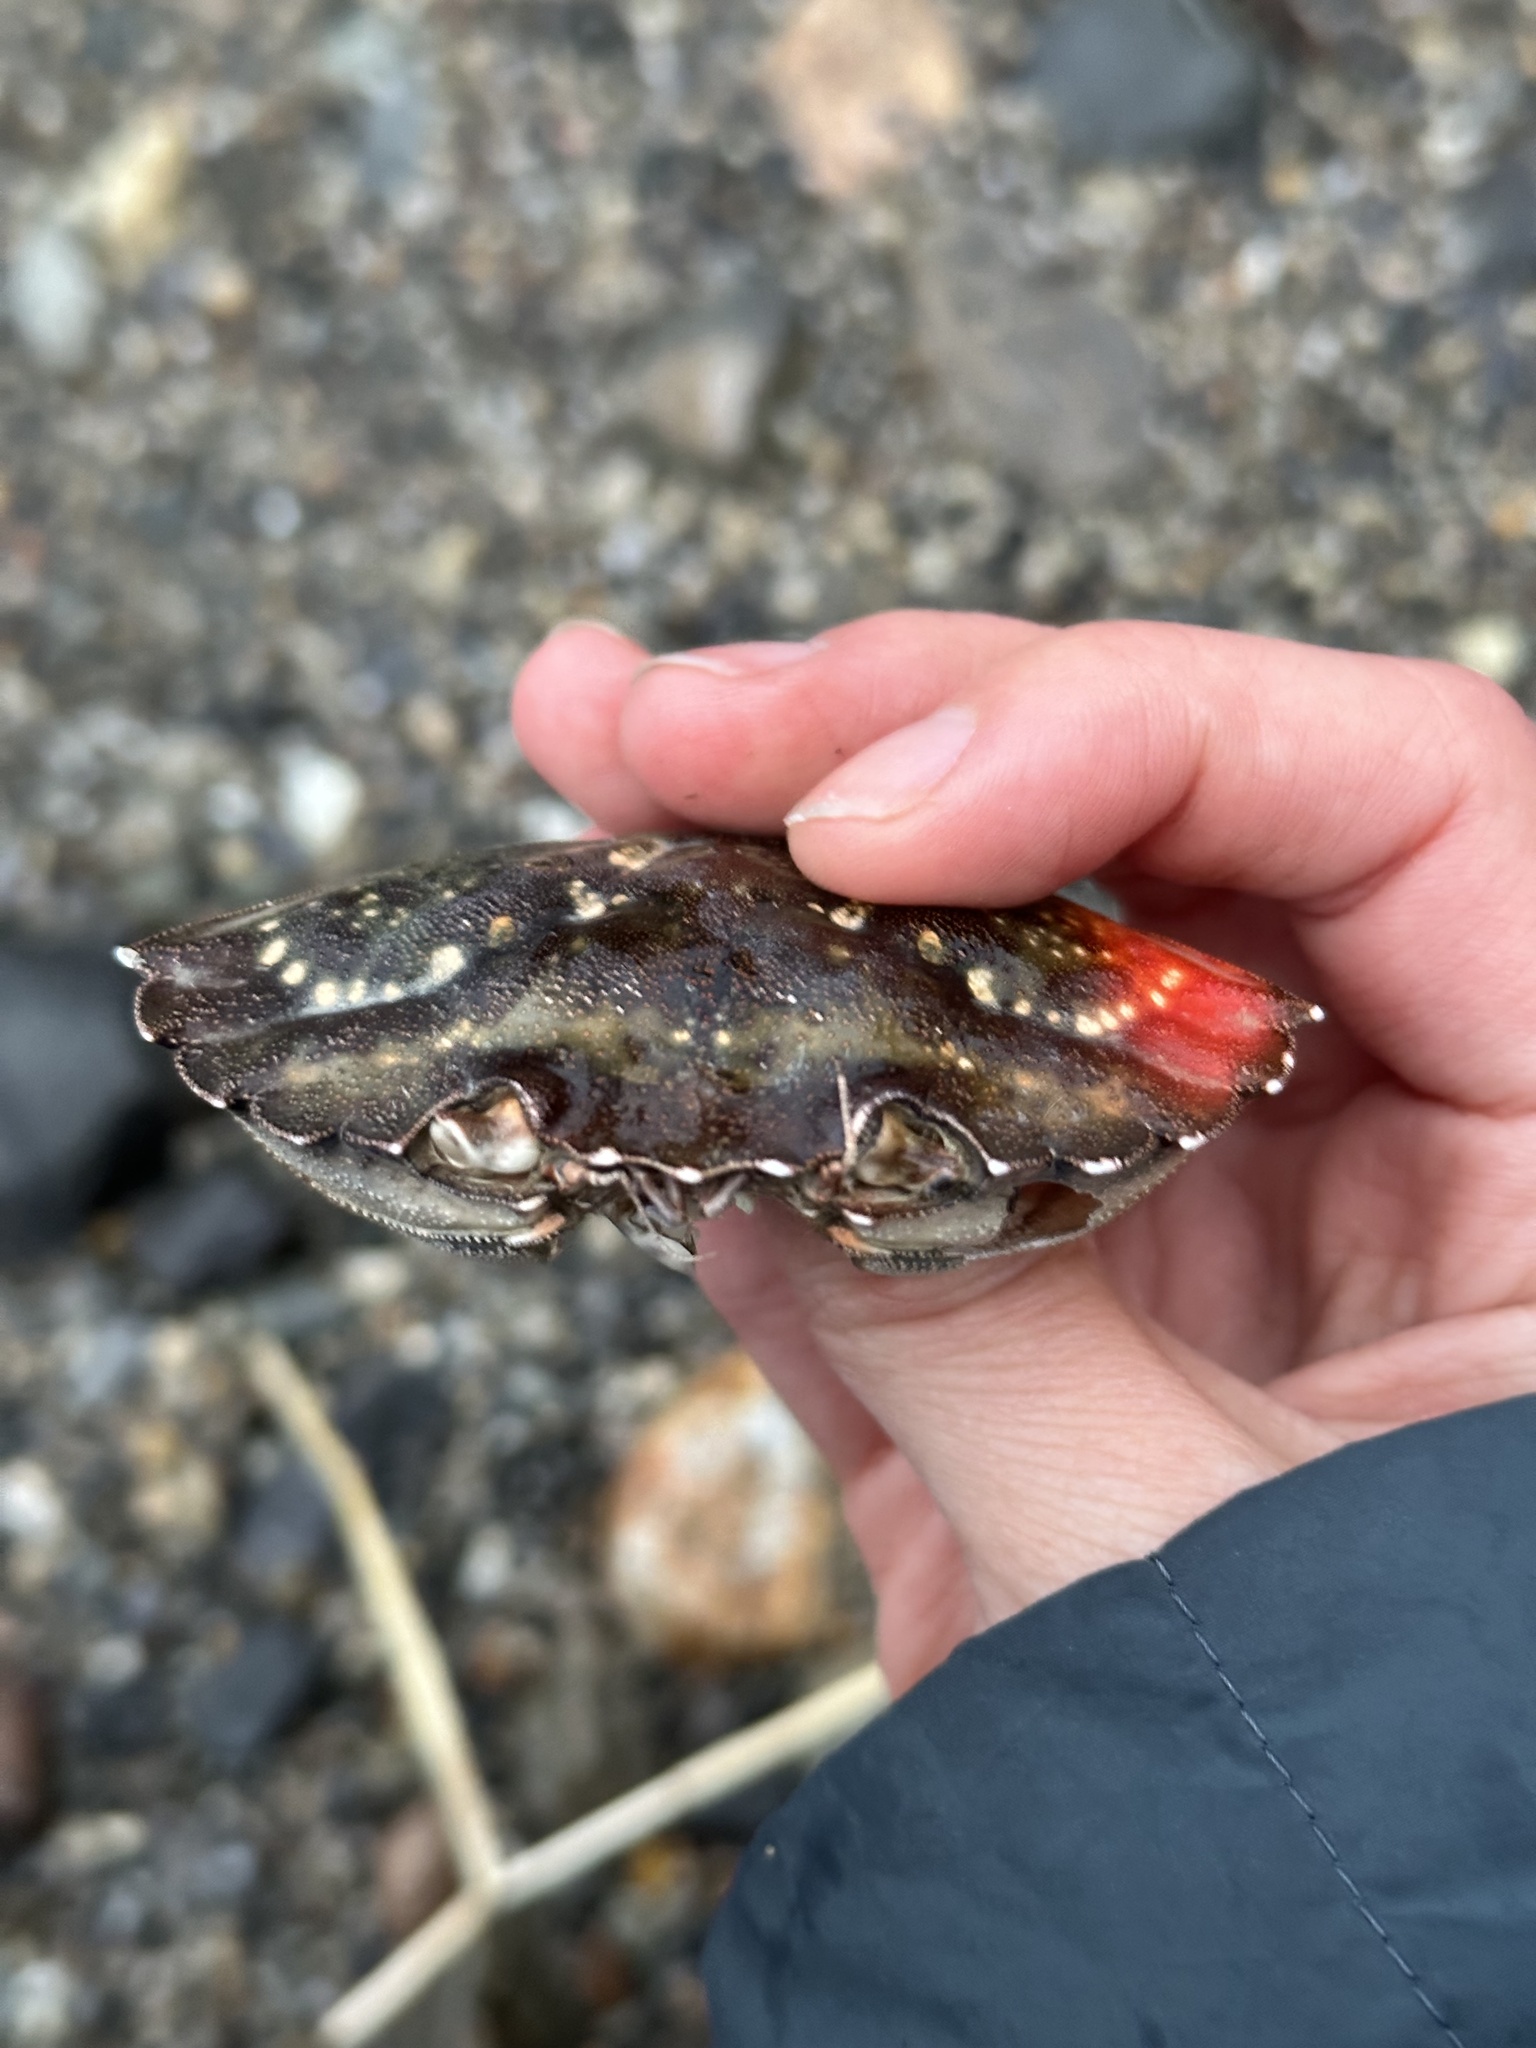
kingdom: Animalia
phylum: Arthropoda
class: Malacostraca
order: Decapoda
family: Carcinidae
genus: Carcinus
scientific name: Carcinus maenas
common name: European green crab
